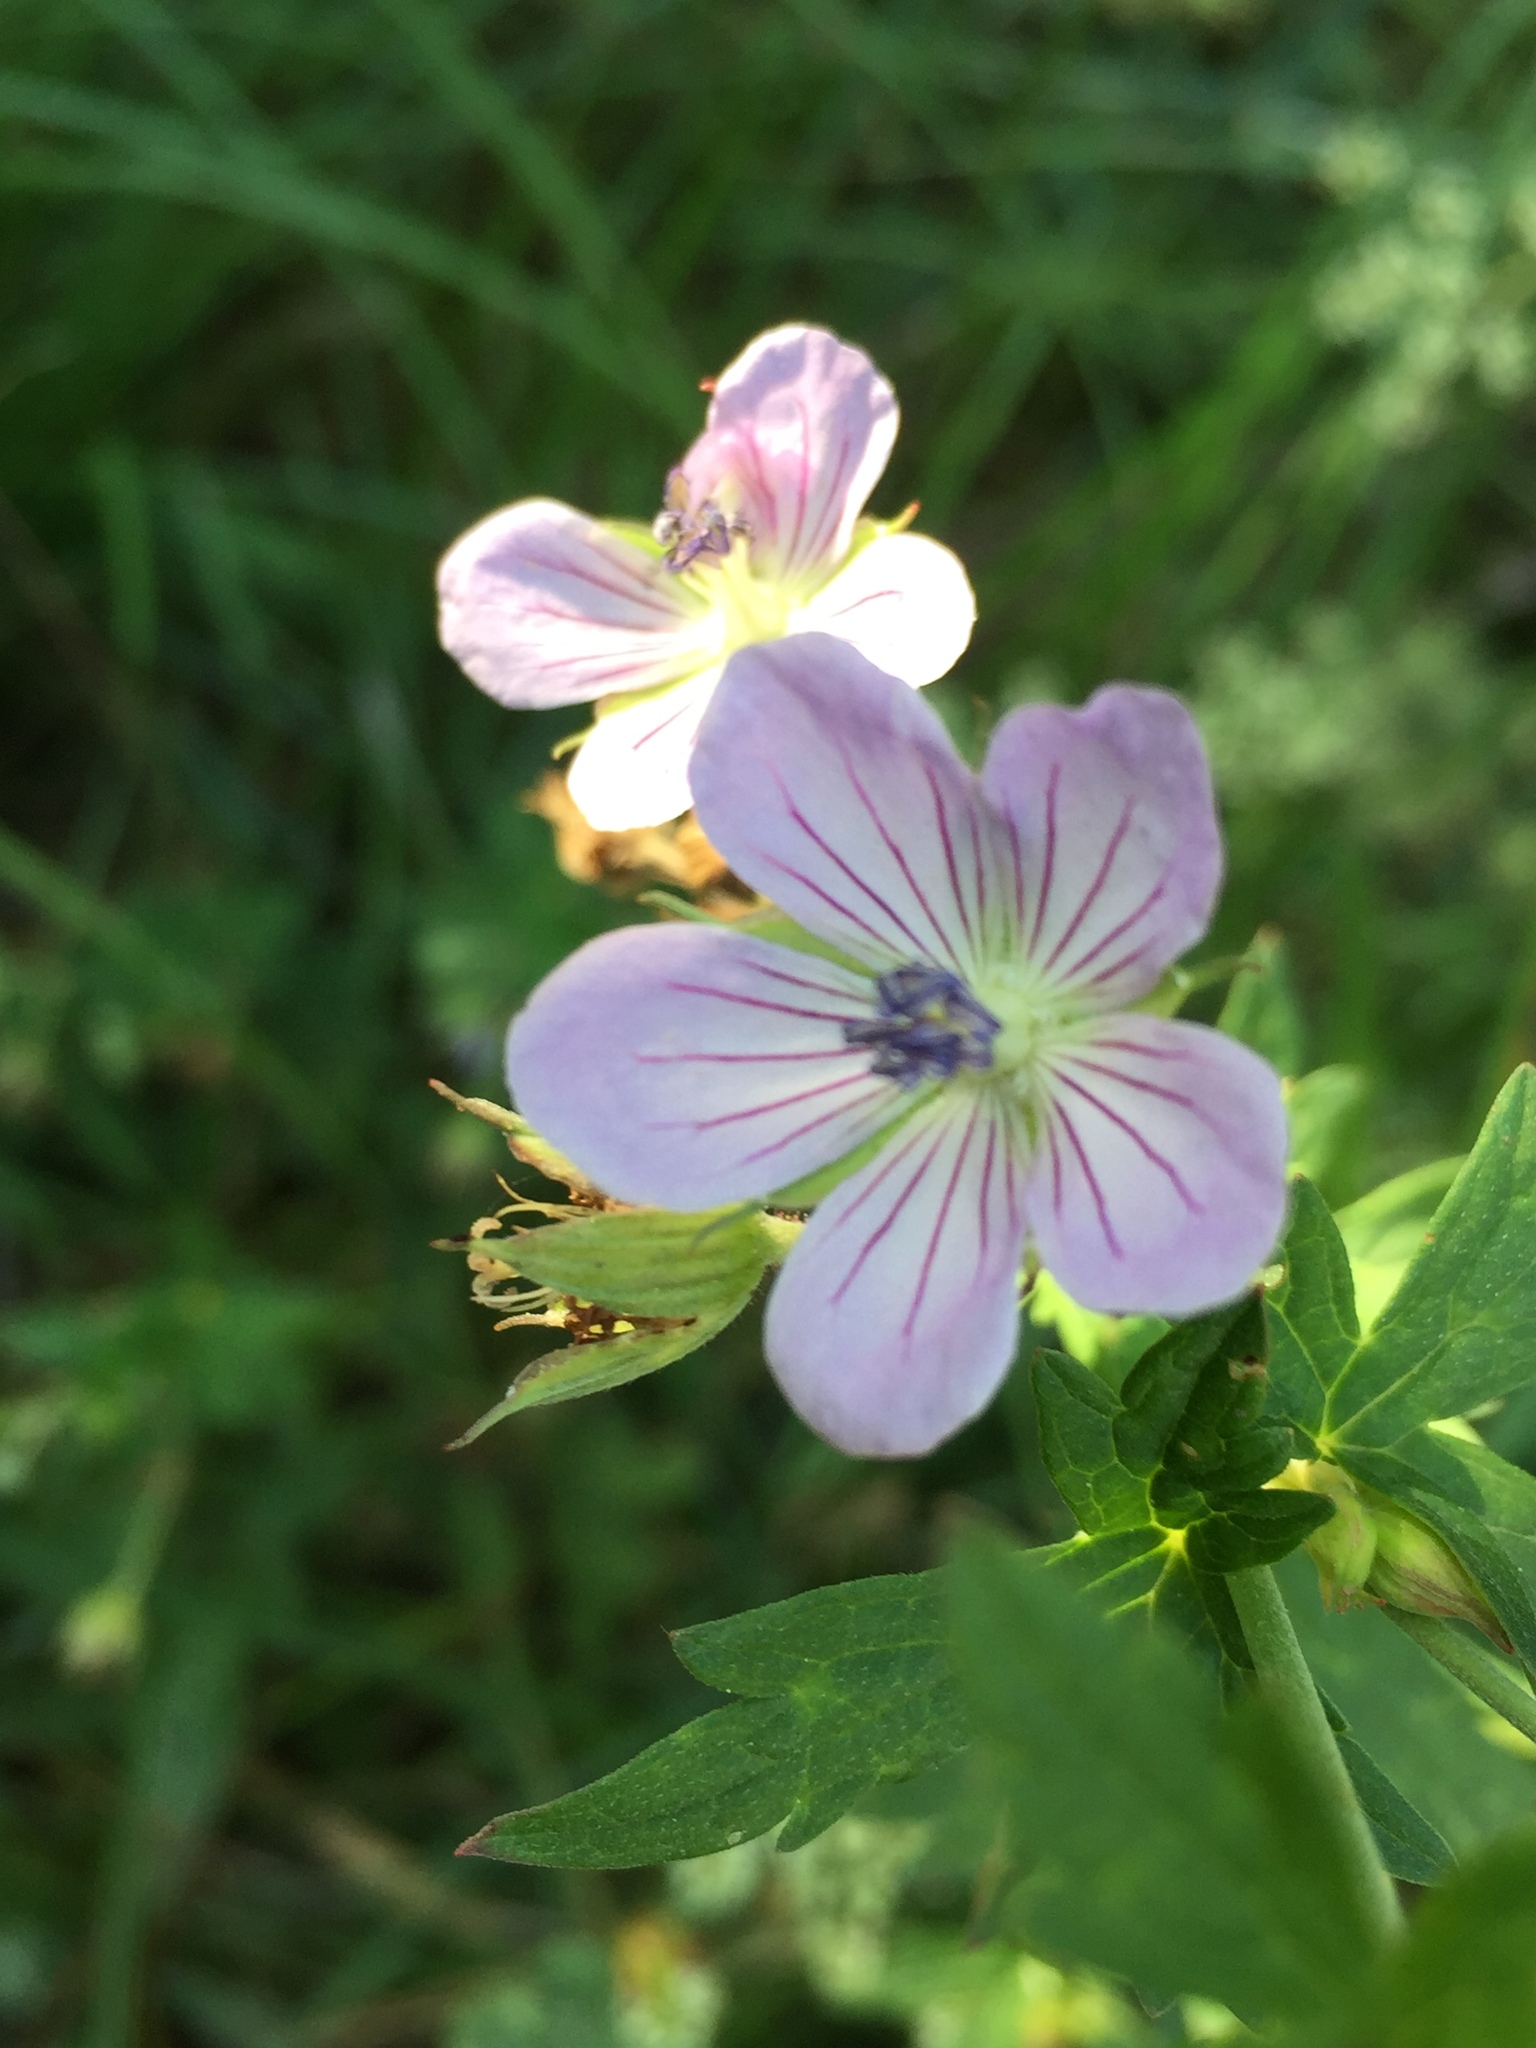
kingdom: Plantae
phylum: Tracheophyta
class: Magnoliopsida
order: Geraniales
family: Geraniaceae
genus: Geranium
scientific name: Geranium collinum
